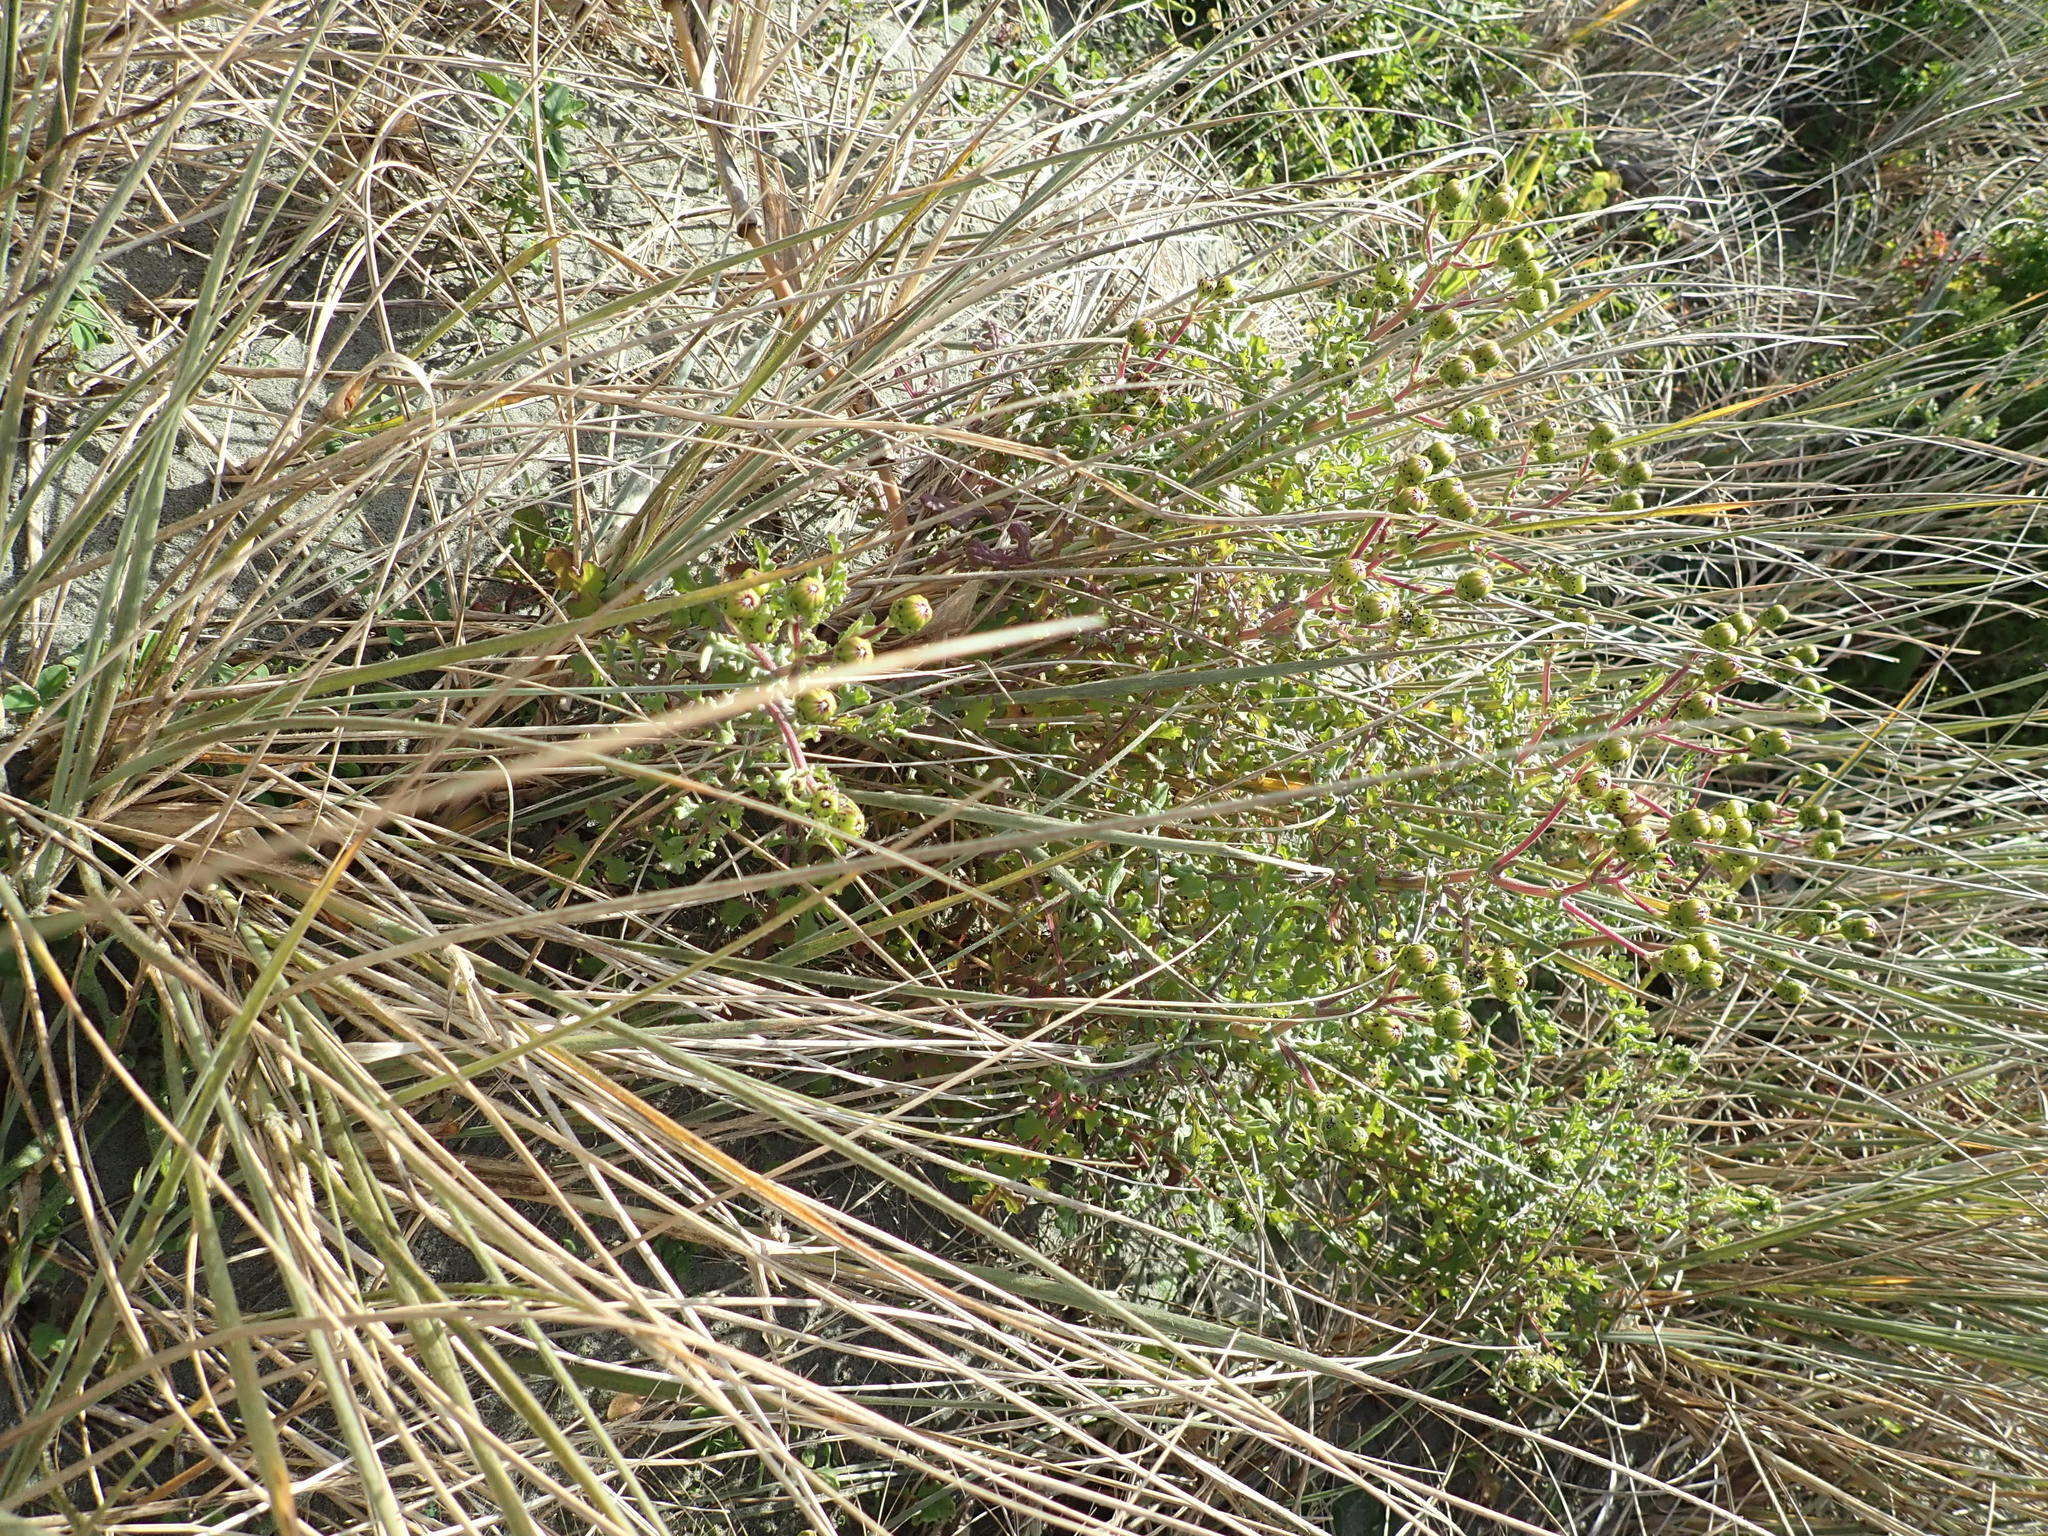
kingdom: Plantae
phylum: Tracheophyta
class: Magnoliopsida
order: Asterales
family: Asteraceae
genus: Senecio
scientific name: Senecio elegans
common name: Purple groundsel
